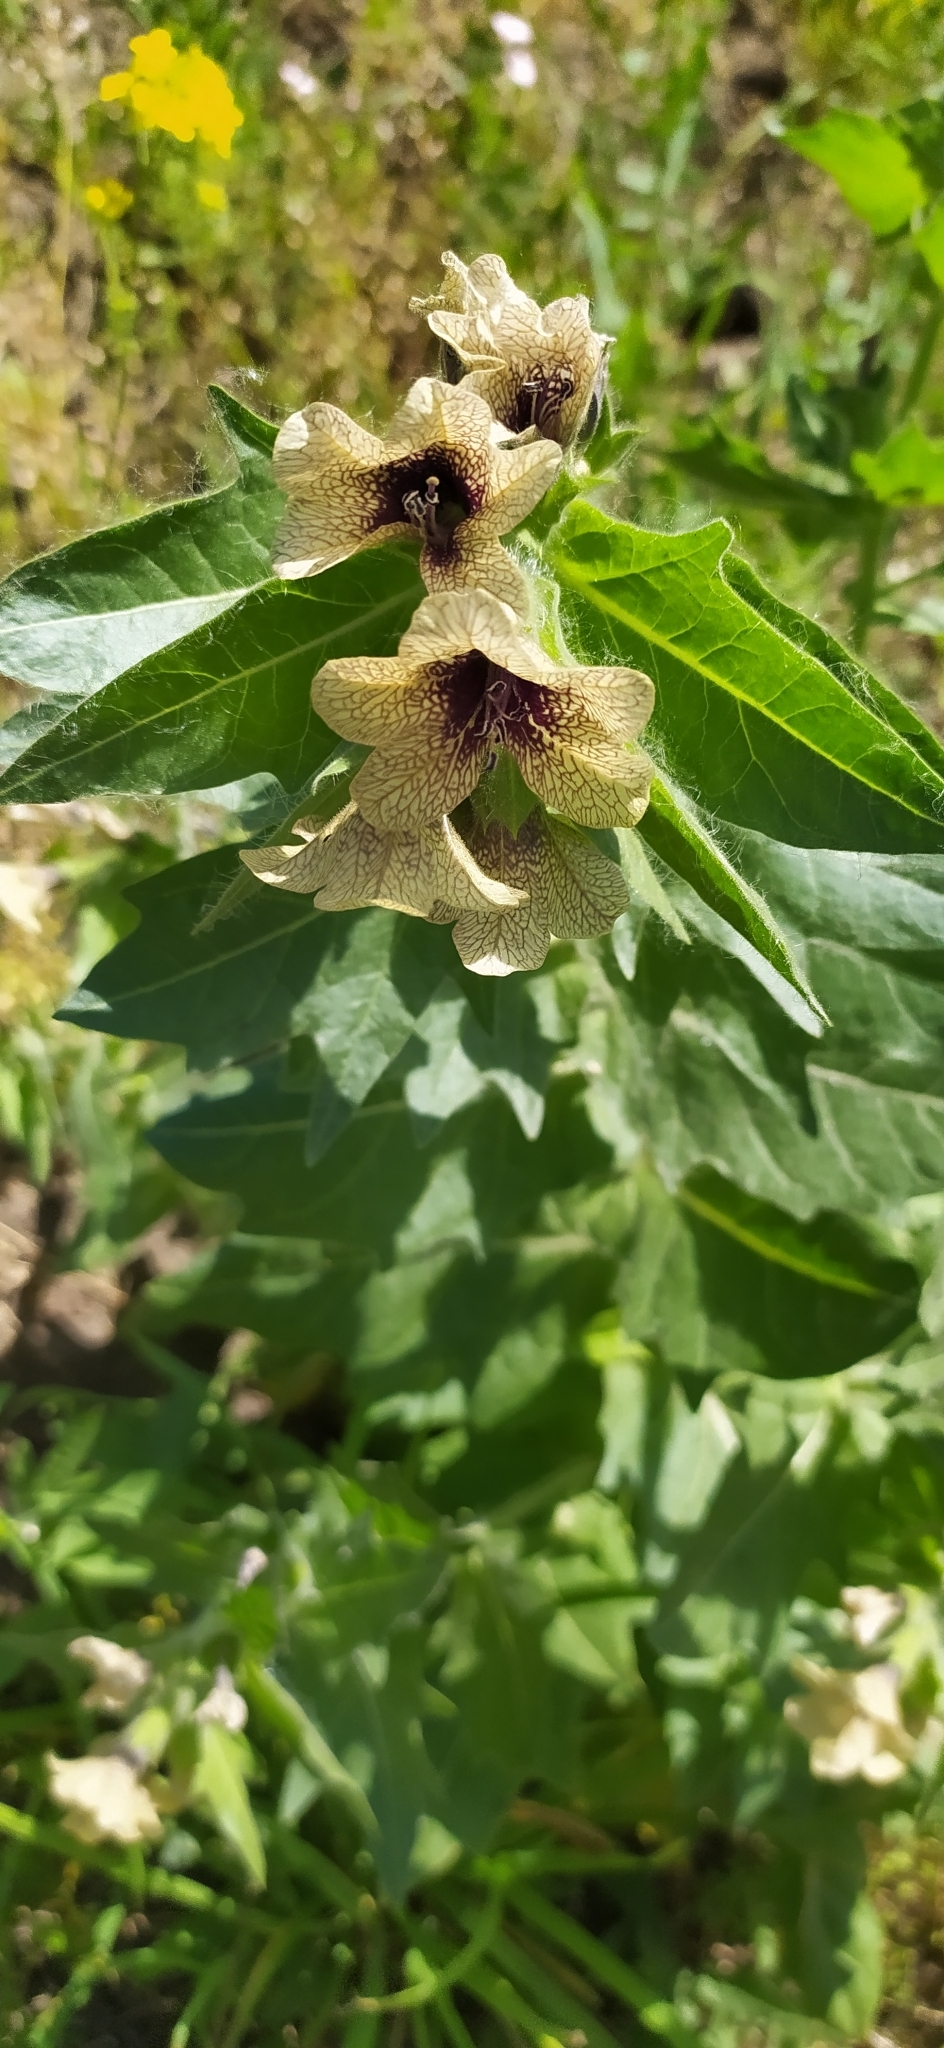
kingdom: Plantae
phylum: Tracheophyta
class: Magnoliopsida
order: Solanales
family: Solanaceae
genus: Hyoscyamus
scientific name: Hyoscyamus niger
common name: Henbane
